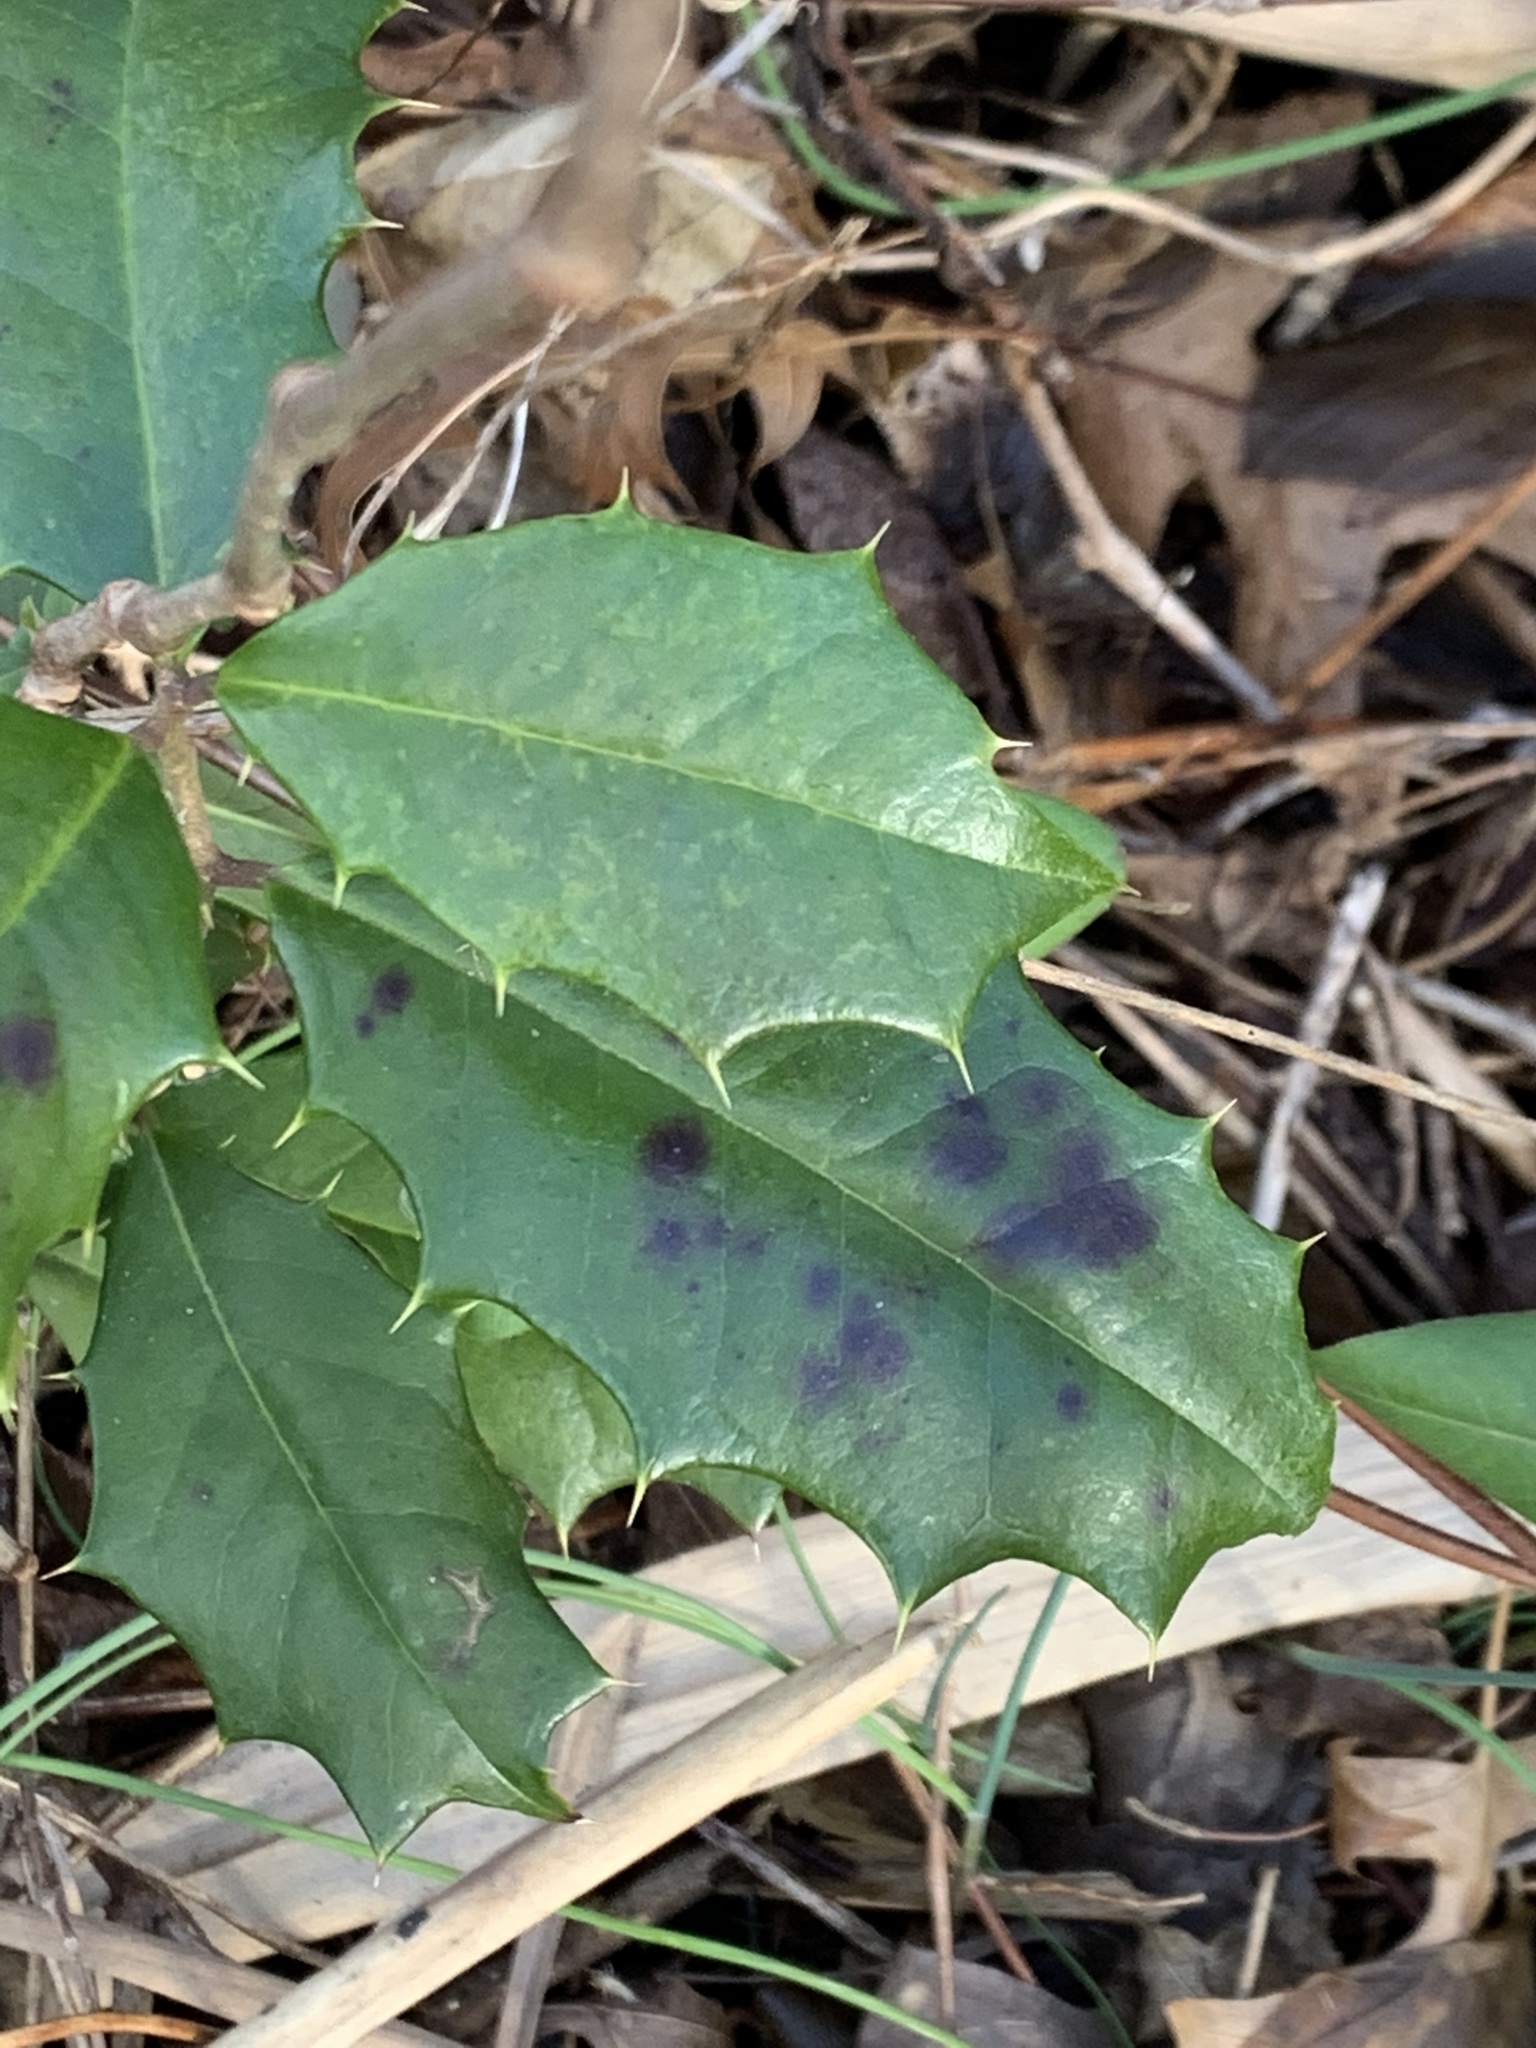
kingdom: Plantae
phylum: Tracheophyta
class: Magnoliopsida
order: Aquifoliales
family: Aquifoliaceae
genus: Ilex
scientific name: Ilex opaca
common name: American holly
